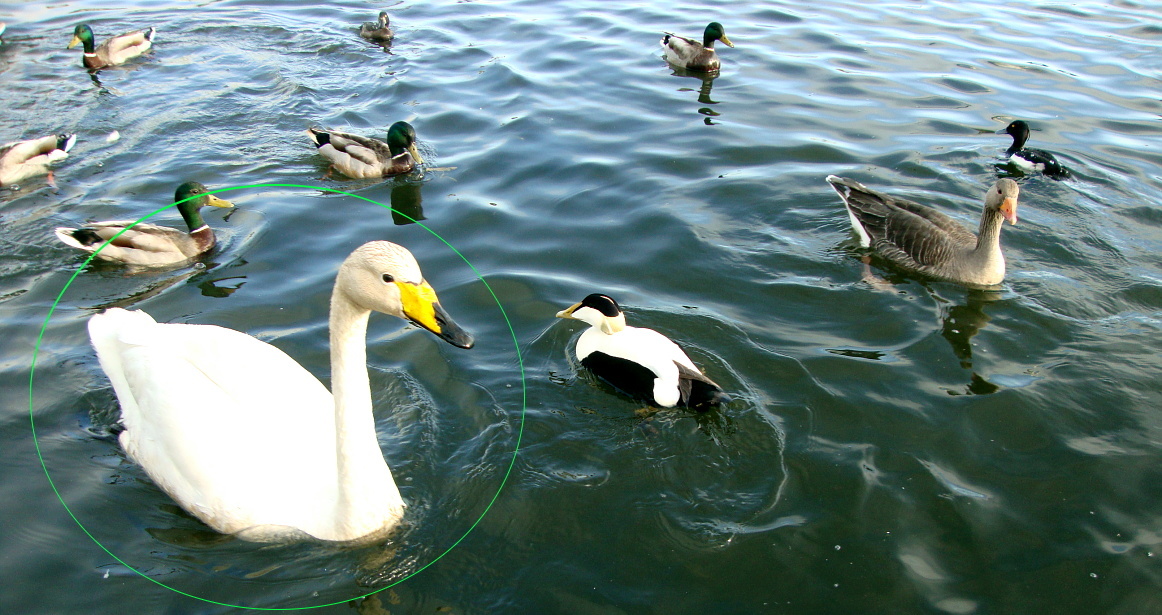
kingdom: Animalia
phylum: Chordata
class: Aves
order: Anseriformes
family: Anatidae
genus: Cygnus
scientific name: Cygnus cygnus
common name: Whooper swan
